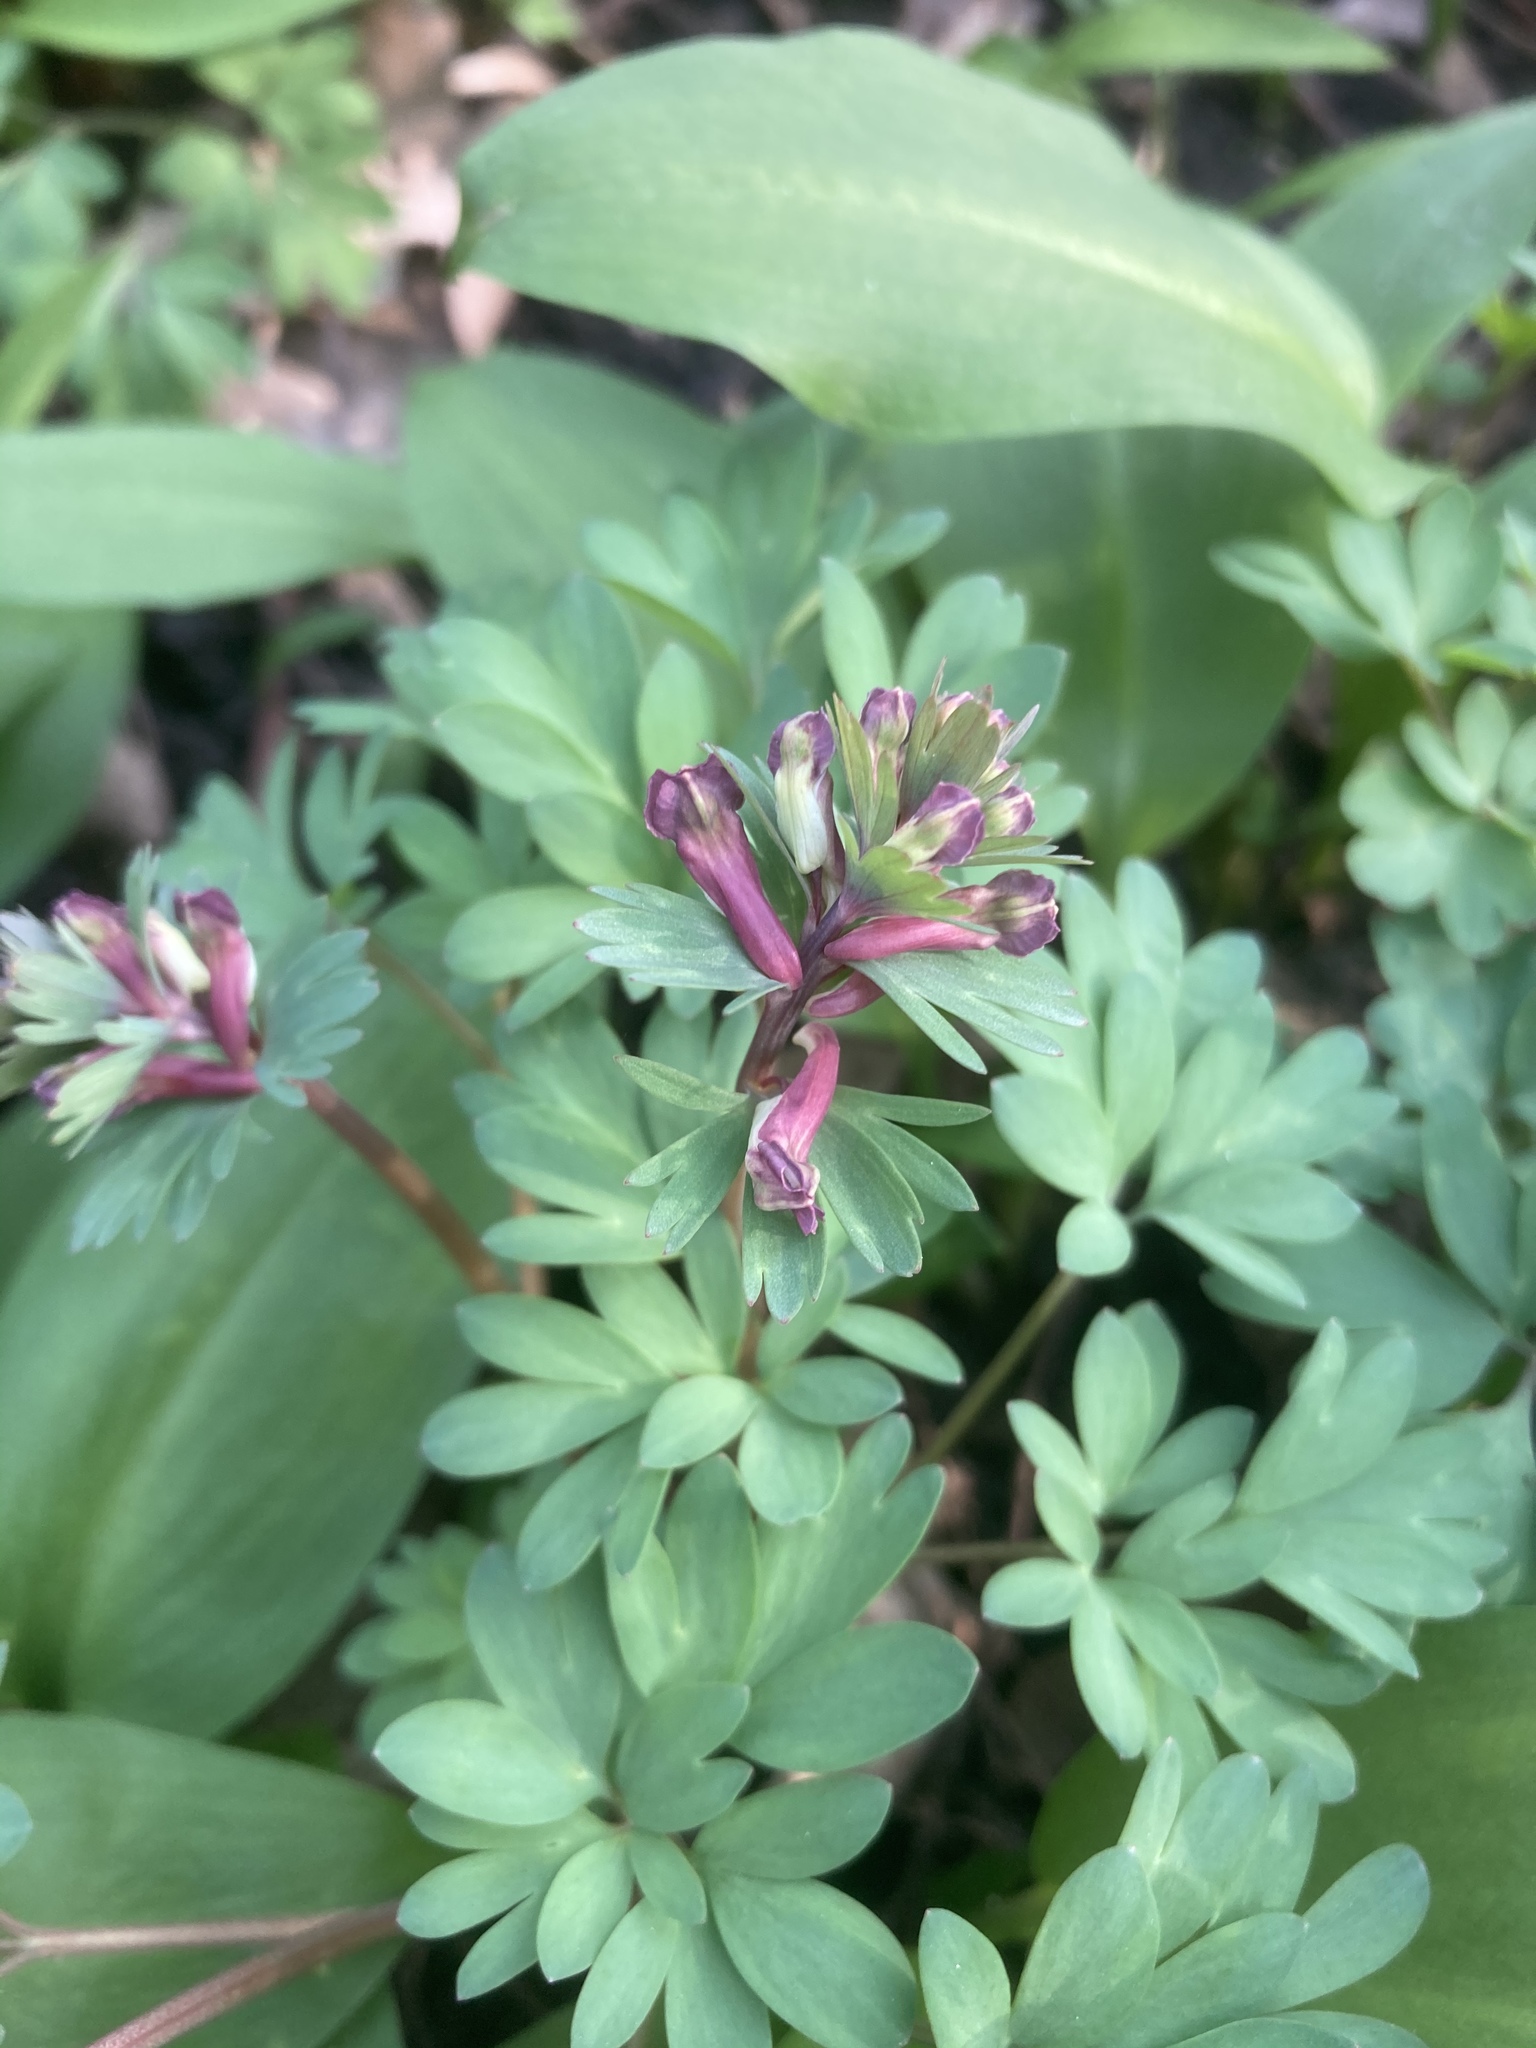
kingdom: Plantae
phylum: Tracheophyta
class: Magnoliopsida
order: Ranunculales
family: Papaveraceae
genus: Corydalis
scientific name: Corydalis solida
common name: Bird-in-a-bush
